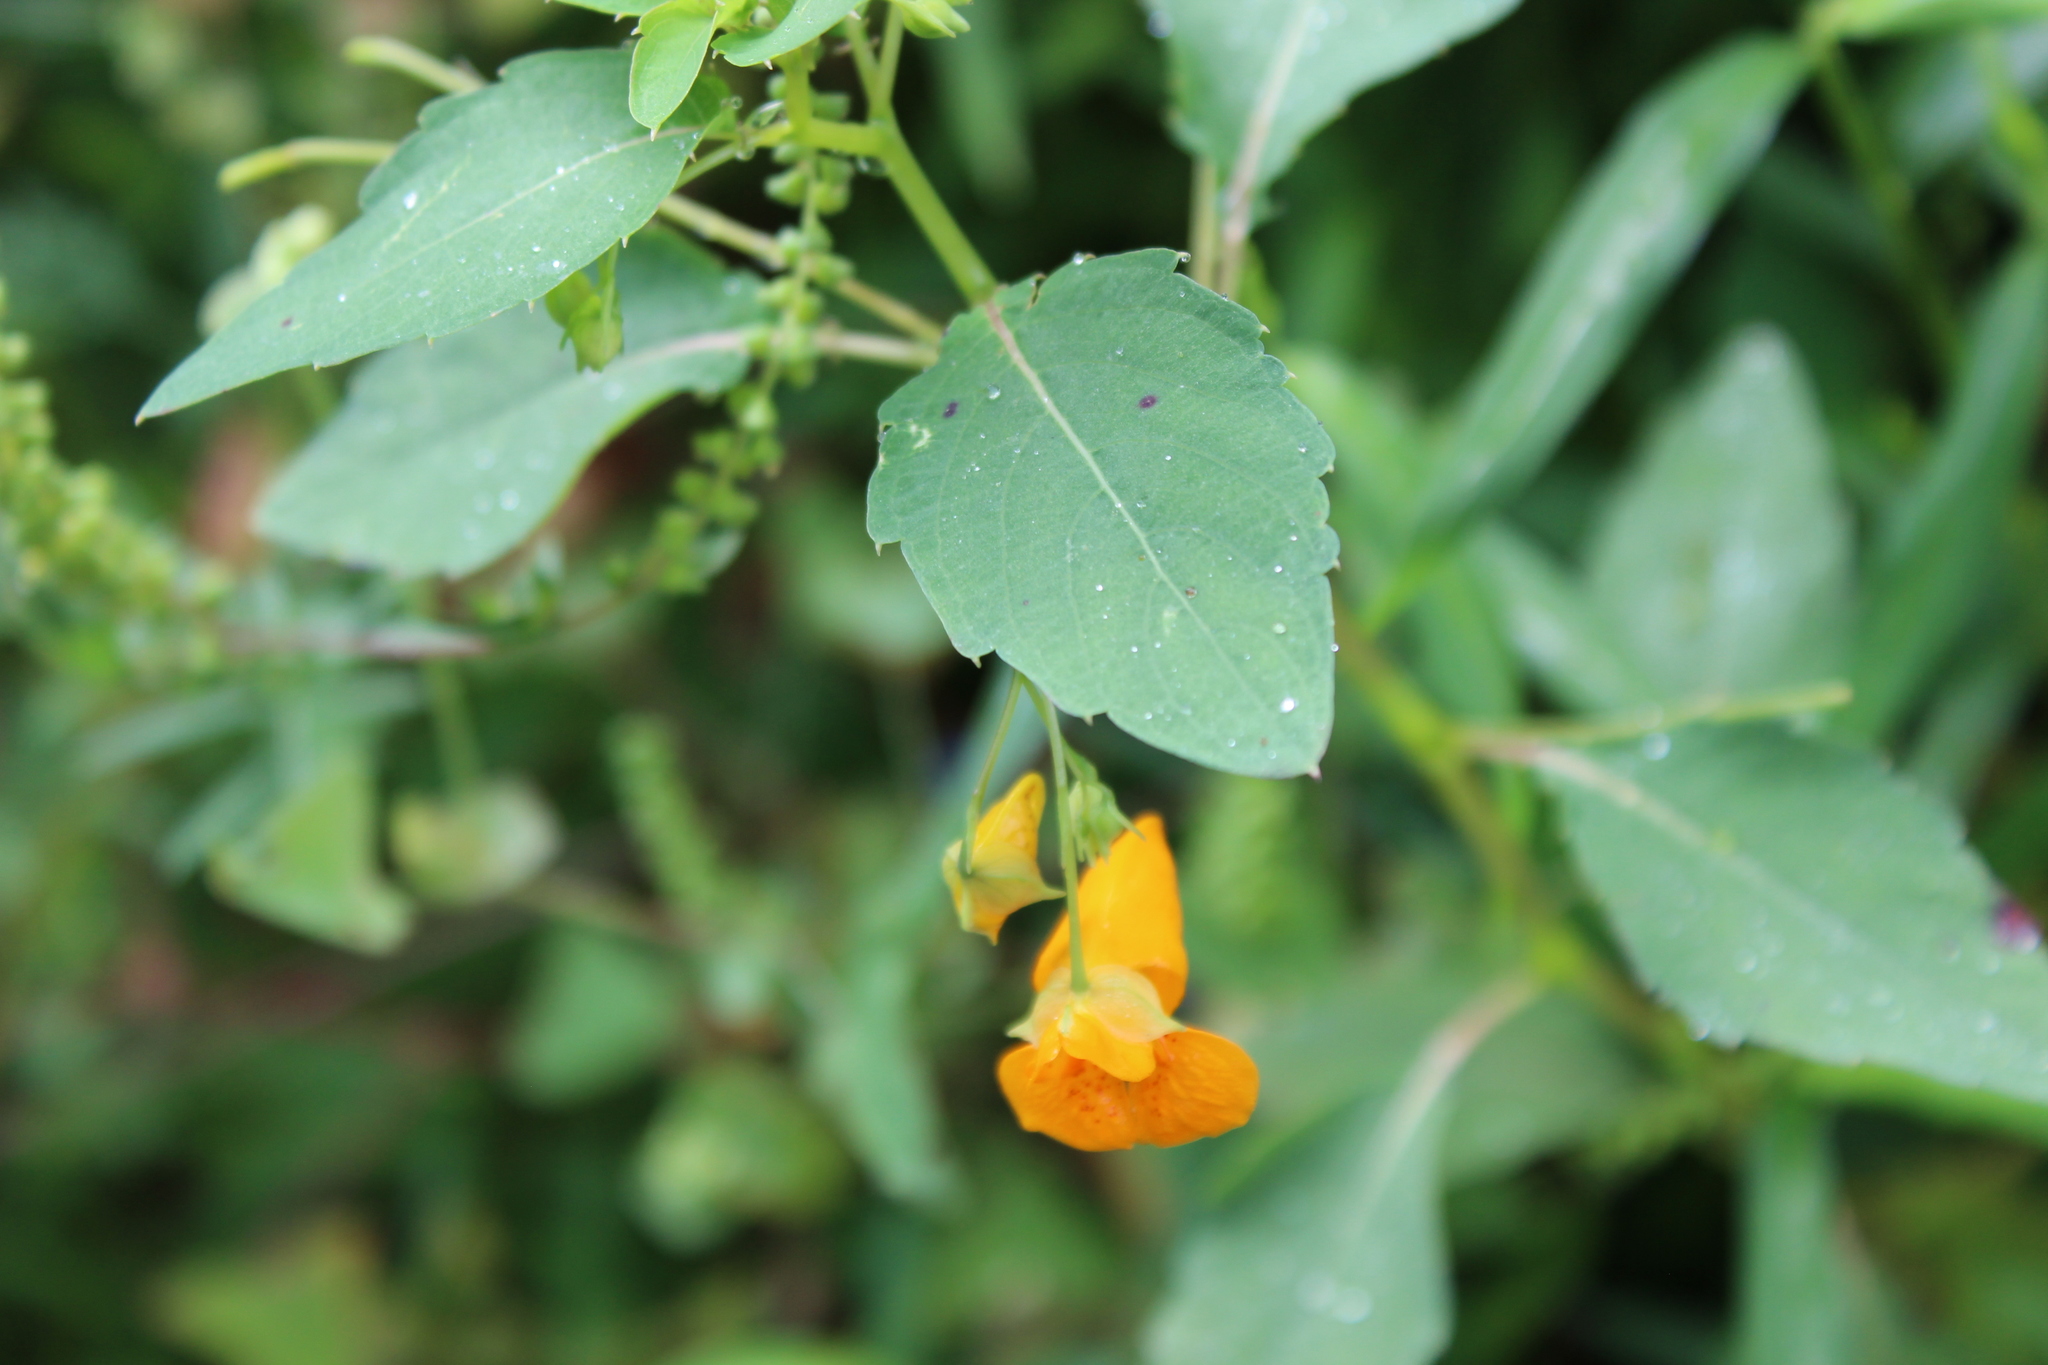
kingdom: Plantae
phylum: Tracheophyta
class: Magnoliopsida
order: Ericales
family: Balsaminaceae
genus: Impatiens
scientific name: Impatiens capensis
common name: Orange balsam
